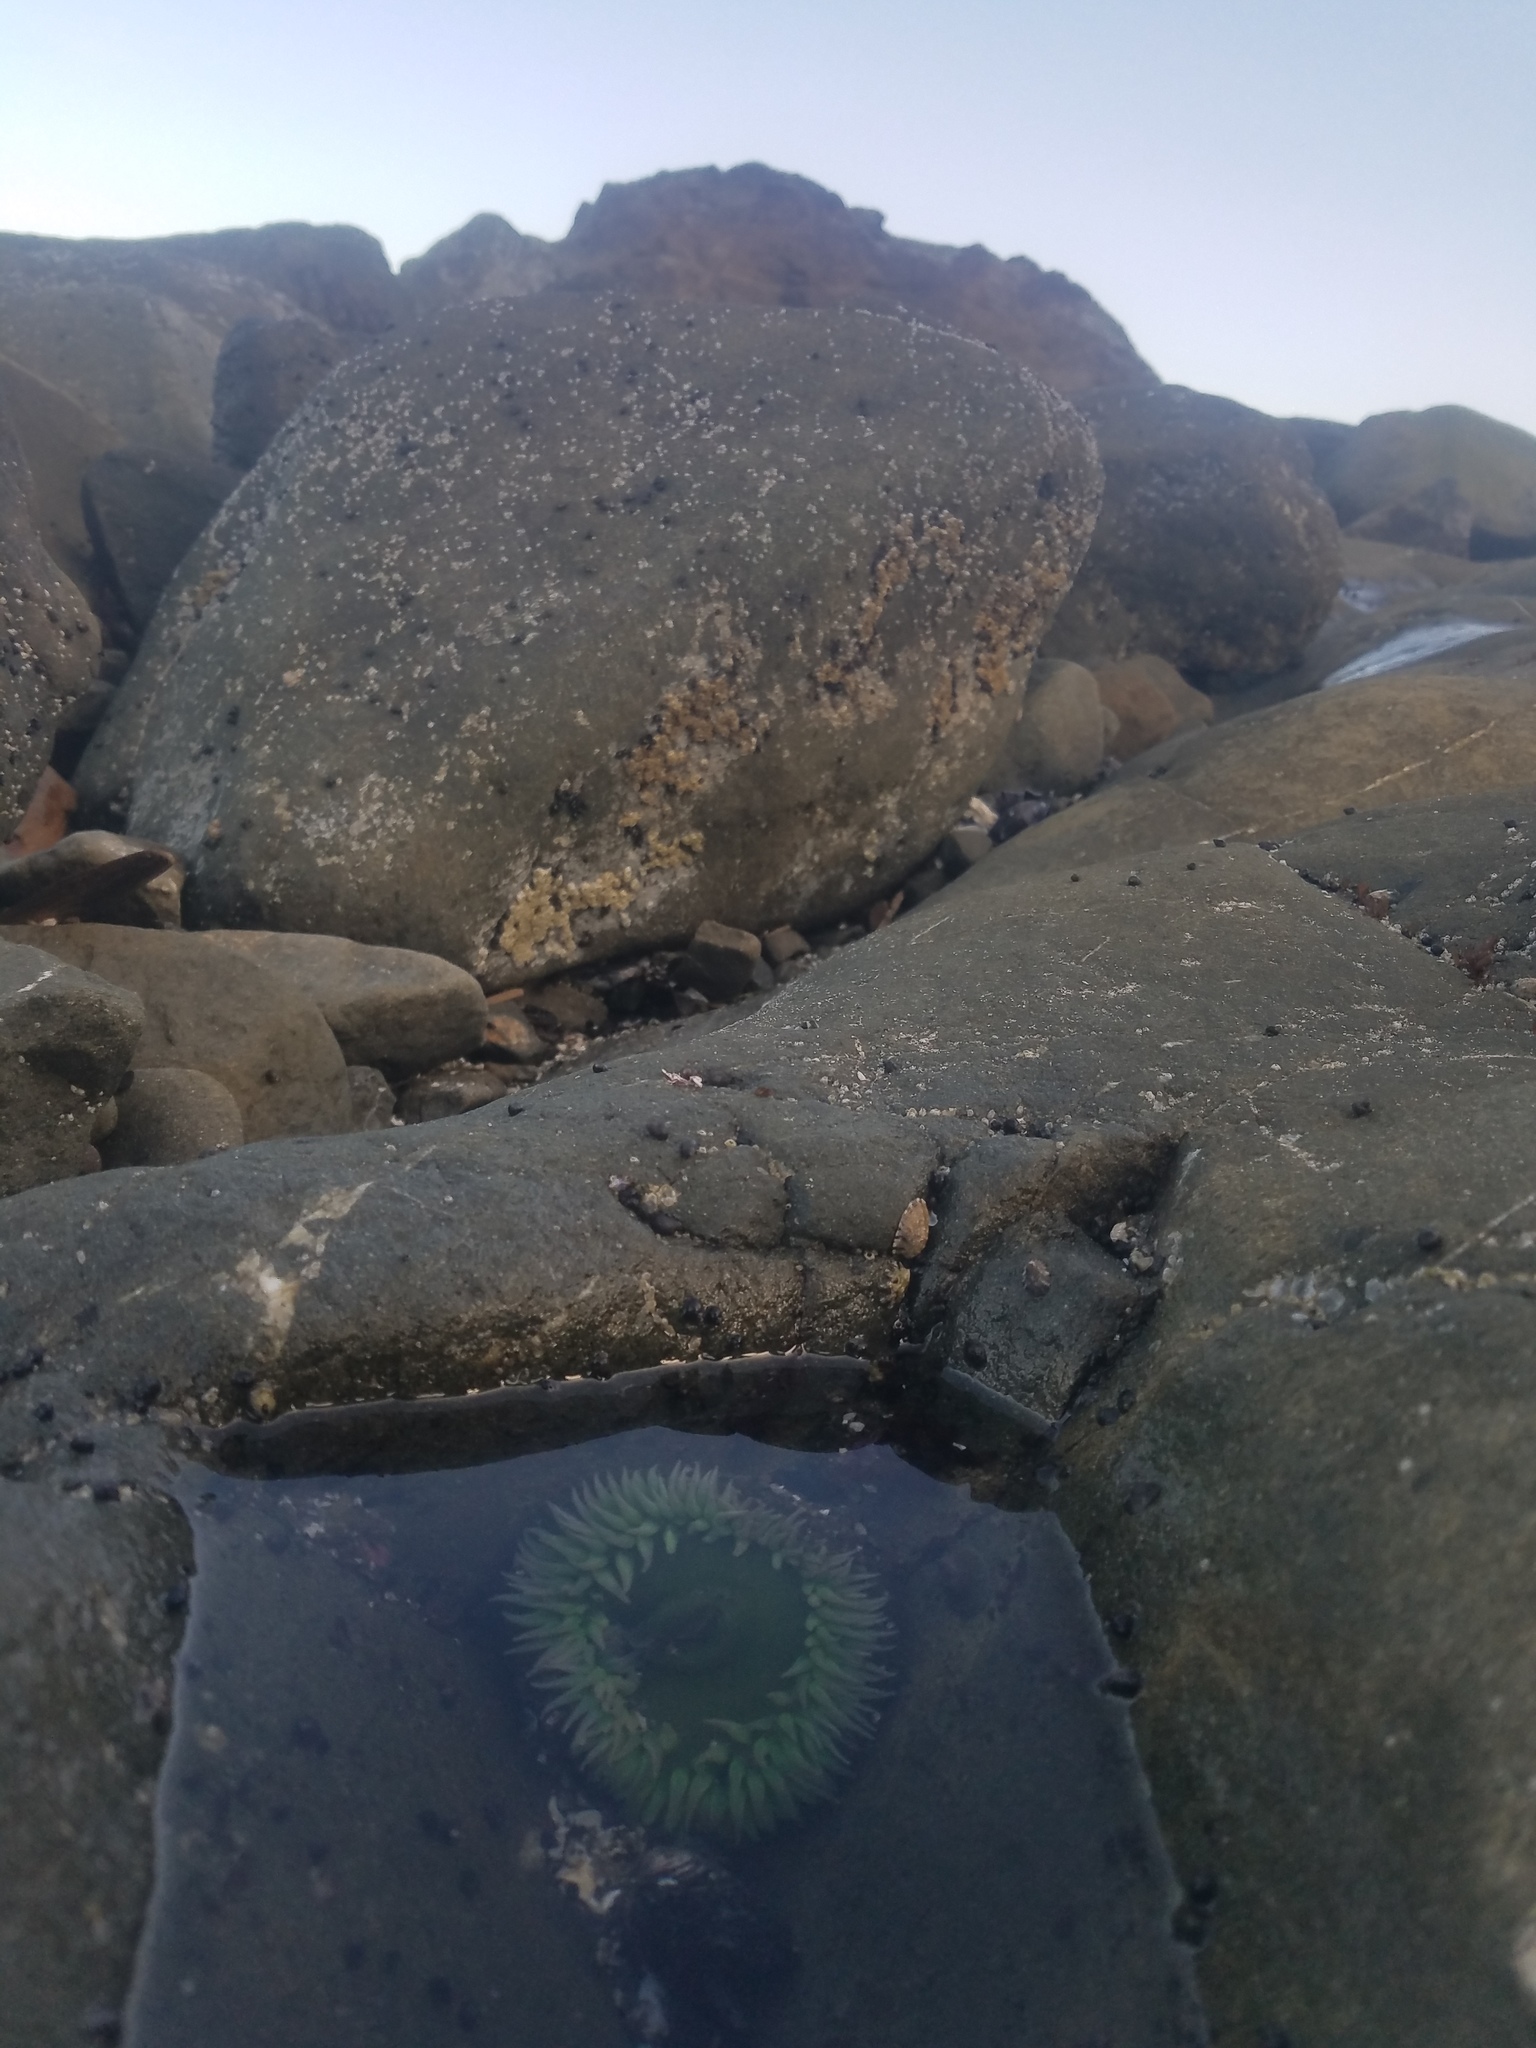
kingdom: Animalia
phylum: Cnidaria
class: Anthozoa
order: Actiniaria
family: Actiniidae
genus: Anthopleura
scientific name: Anthopleura xanthogrammica
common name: Giant green anemone
